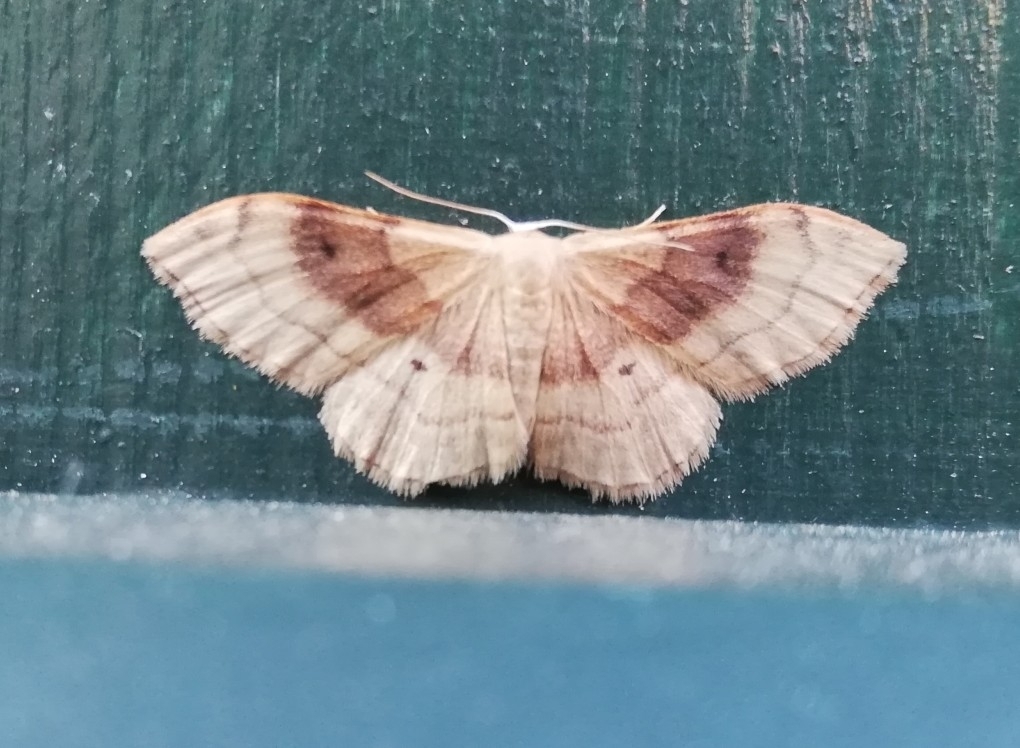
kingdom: Animalia
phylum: Arthropoda
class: Insecta
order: Lepidoptera
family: Geometridae
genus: Idaea
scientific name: Idaea degeneraria
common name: Portland ribbon wave
